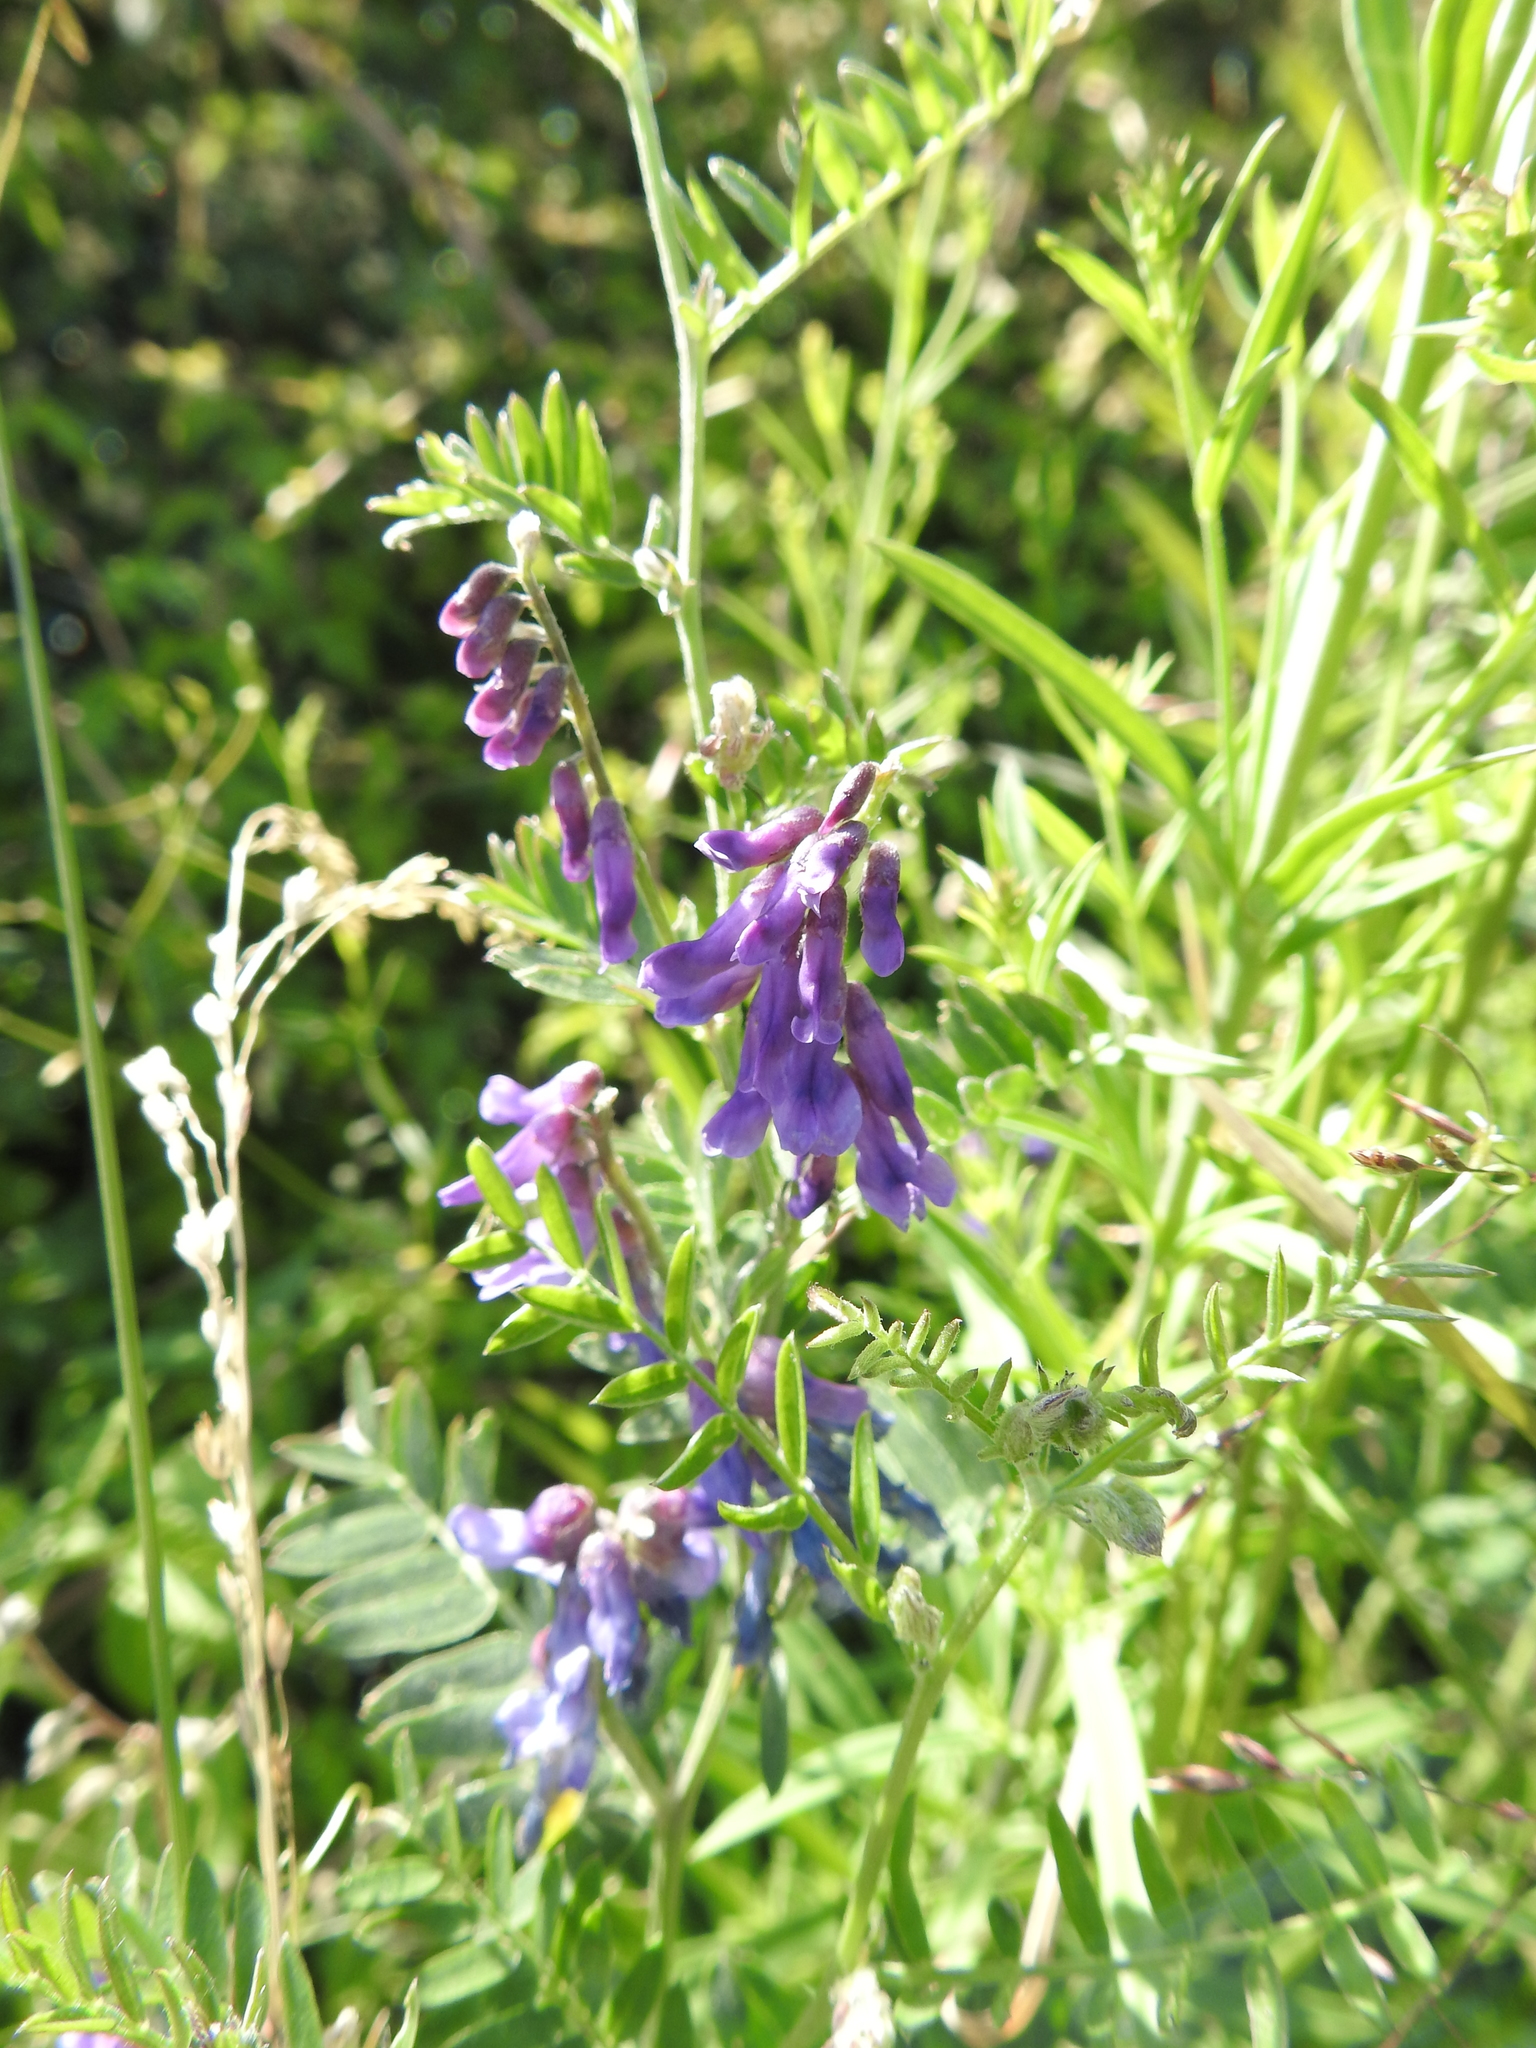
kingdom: Plantae
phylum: Tracheophyta
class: Magnoliopsida
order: Fabales
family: Fabaceae
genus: Vicia
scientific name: Vicia cracca
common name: Bird vetch
